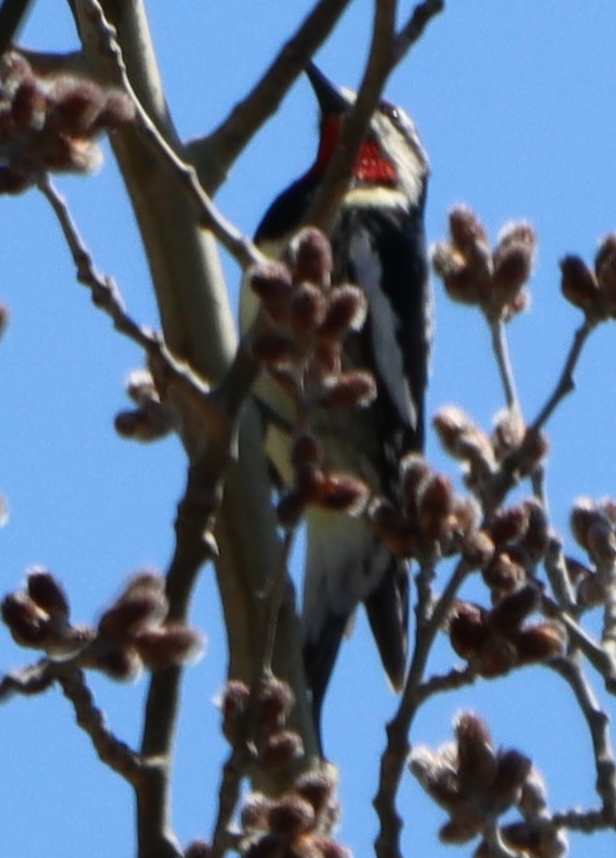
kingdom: Animalia
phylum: Chordata
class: Aves
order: Piciformes
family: Picidae
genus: Sphyrapicus
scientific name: Sphyrapicus varius
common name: Yellow-bellied sapsucker
